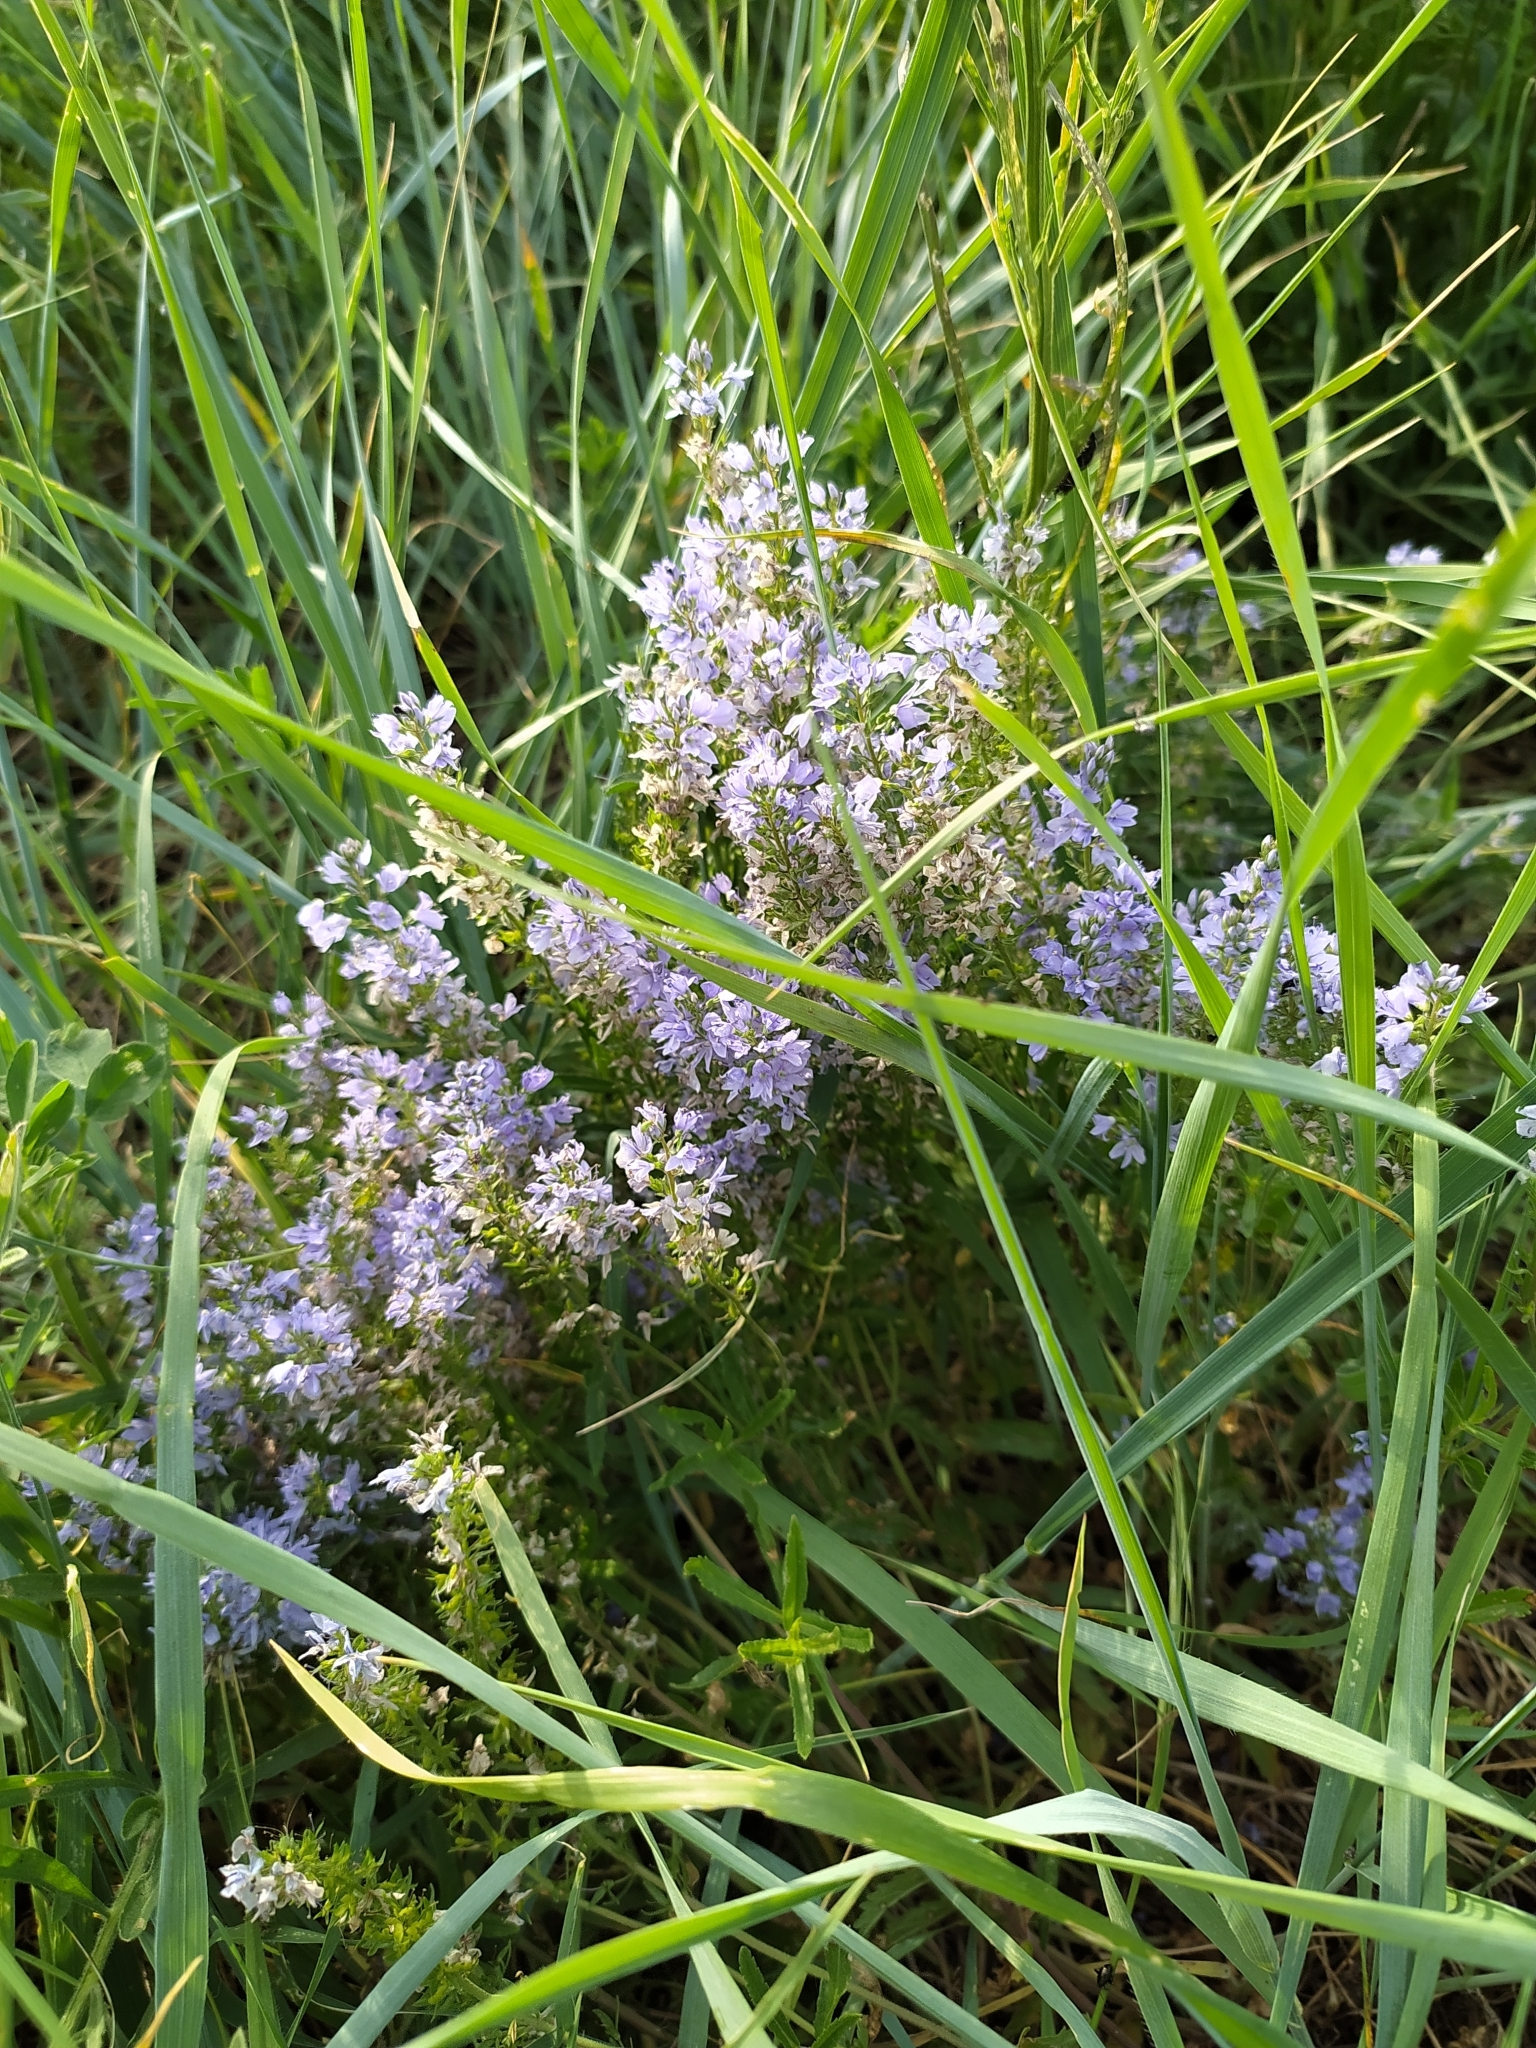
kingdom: Plantae
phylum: Tracheophyta
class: Magnoliopsida
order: Lamiales
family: Plantaginaceae
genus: Veronica
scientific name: Veronica prostrata
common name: Prostrate speedwell
